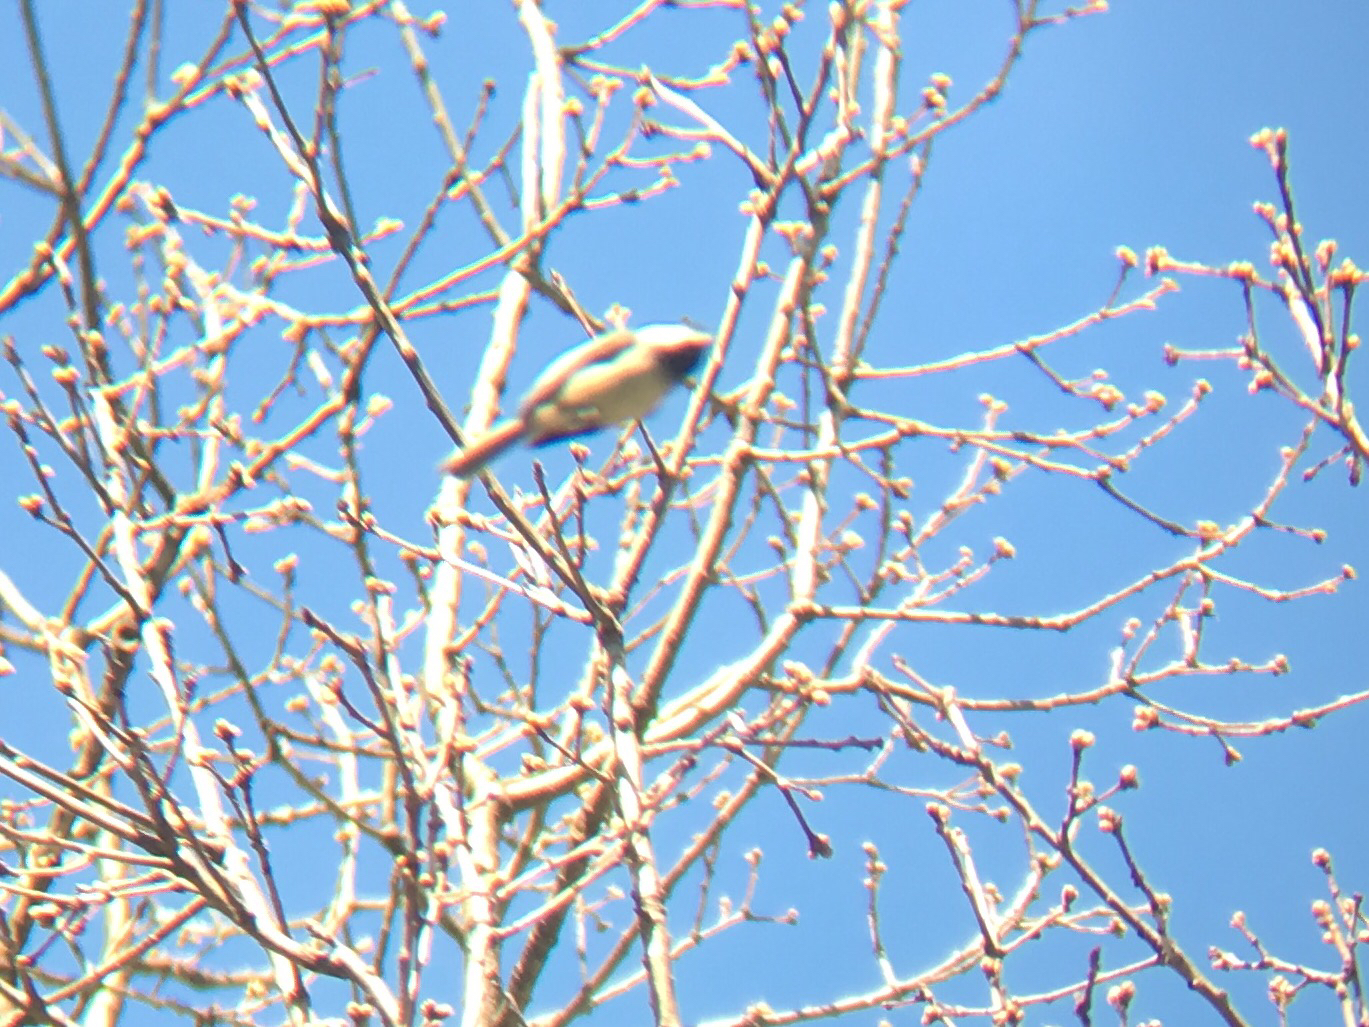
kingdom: Animalia
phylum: Chordata
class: Aves
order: Passeriformes
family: Paridae
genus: Poecile
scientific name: Poecile atricapillus
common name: Black-capped chickadee
